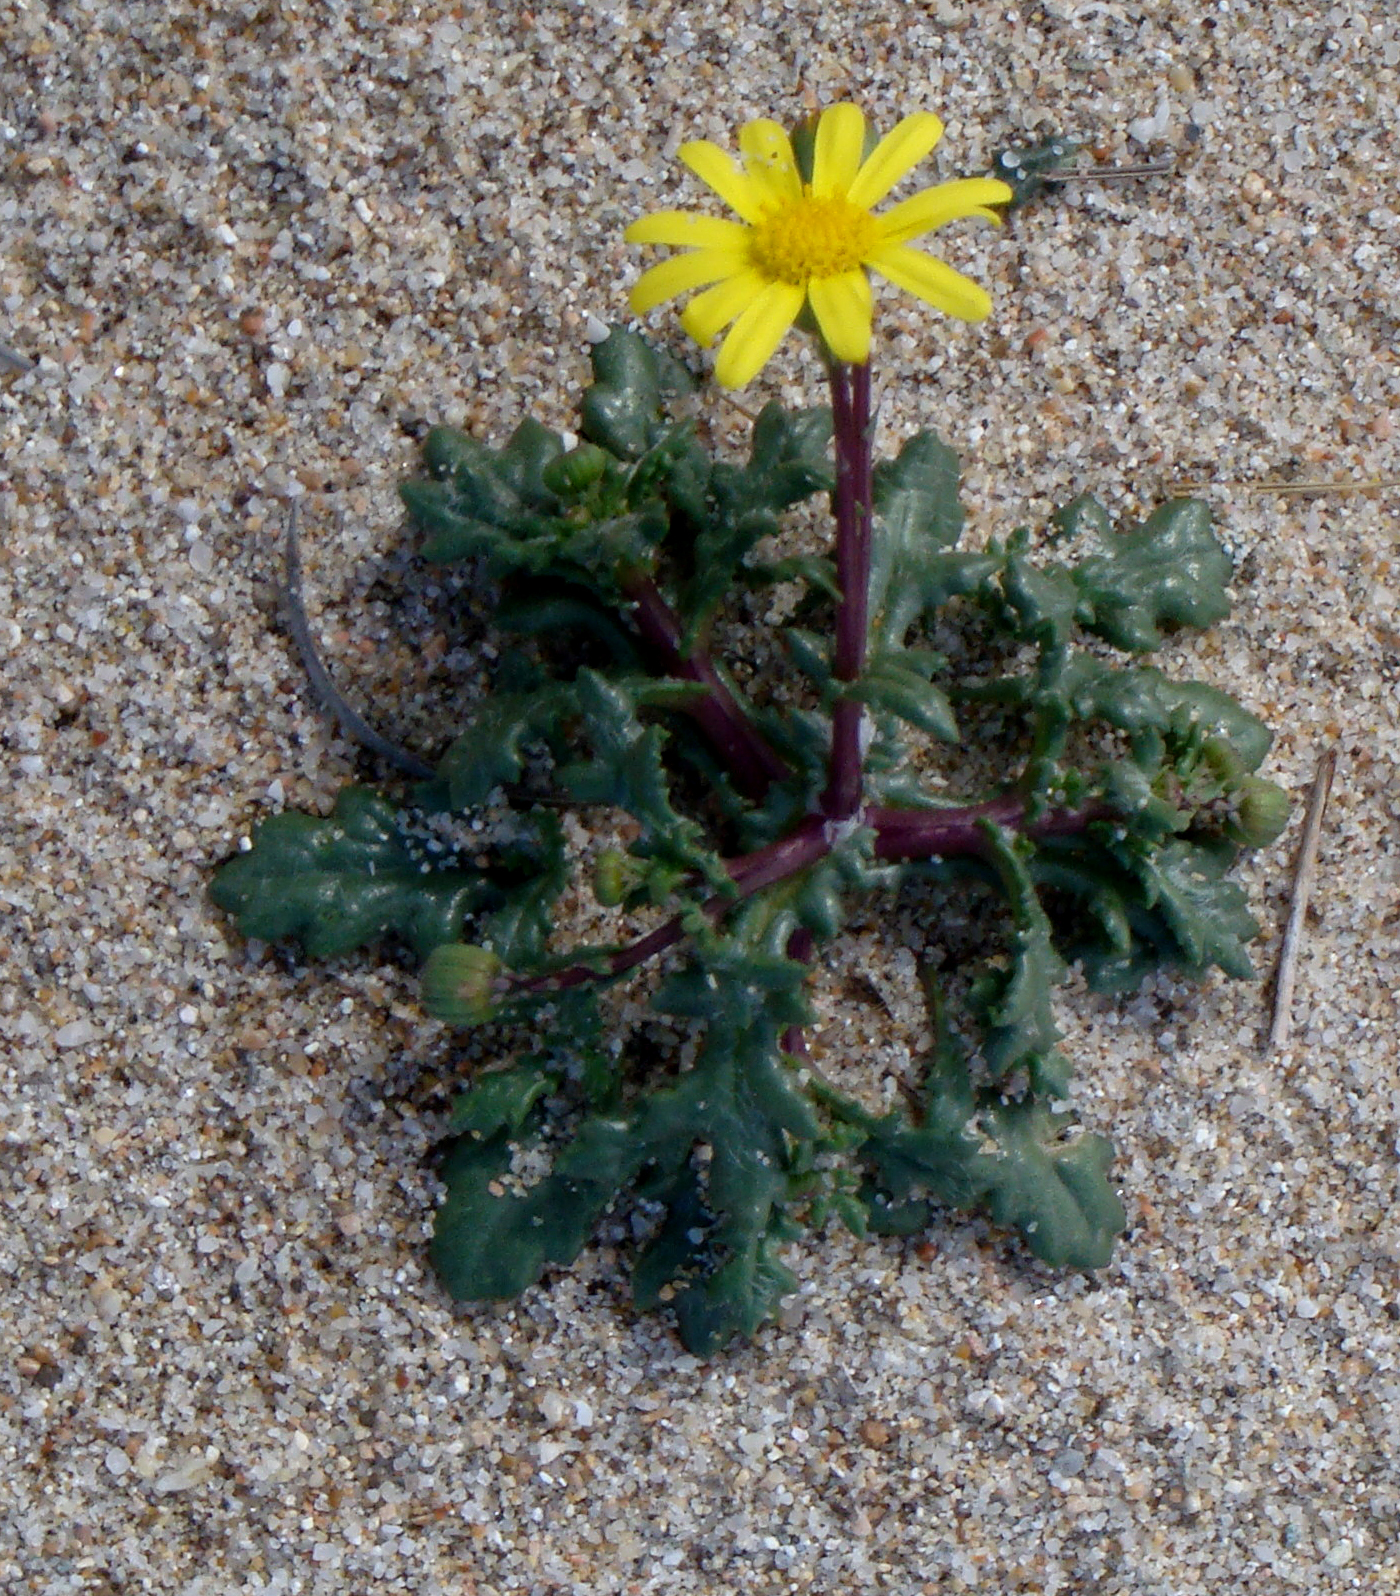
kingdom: Plantae
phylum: Tracheophyta
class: Magnoliopsida
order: Asterales
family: Asteraceae
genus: Senecio
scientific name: Senecio leucanthemifolius
